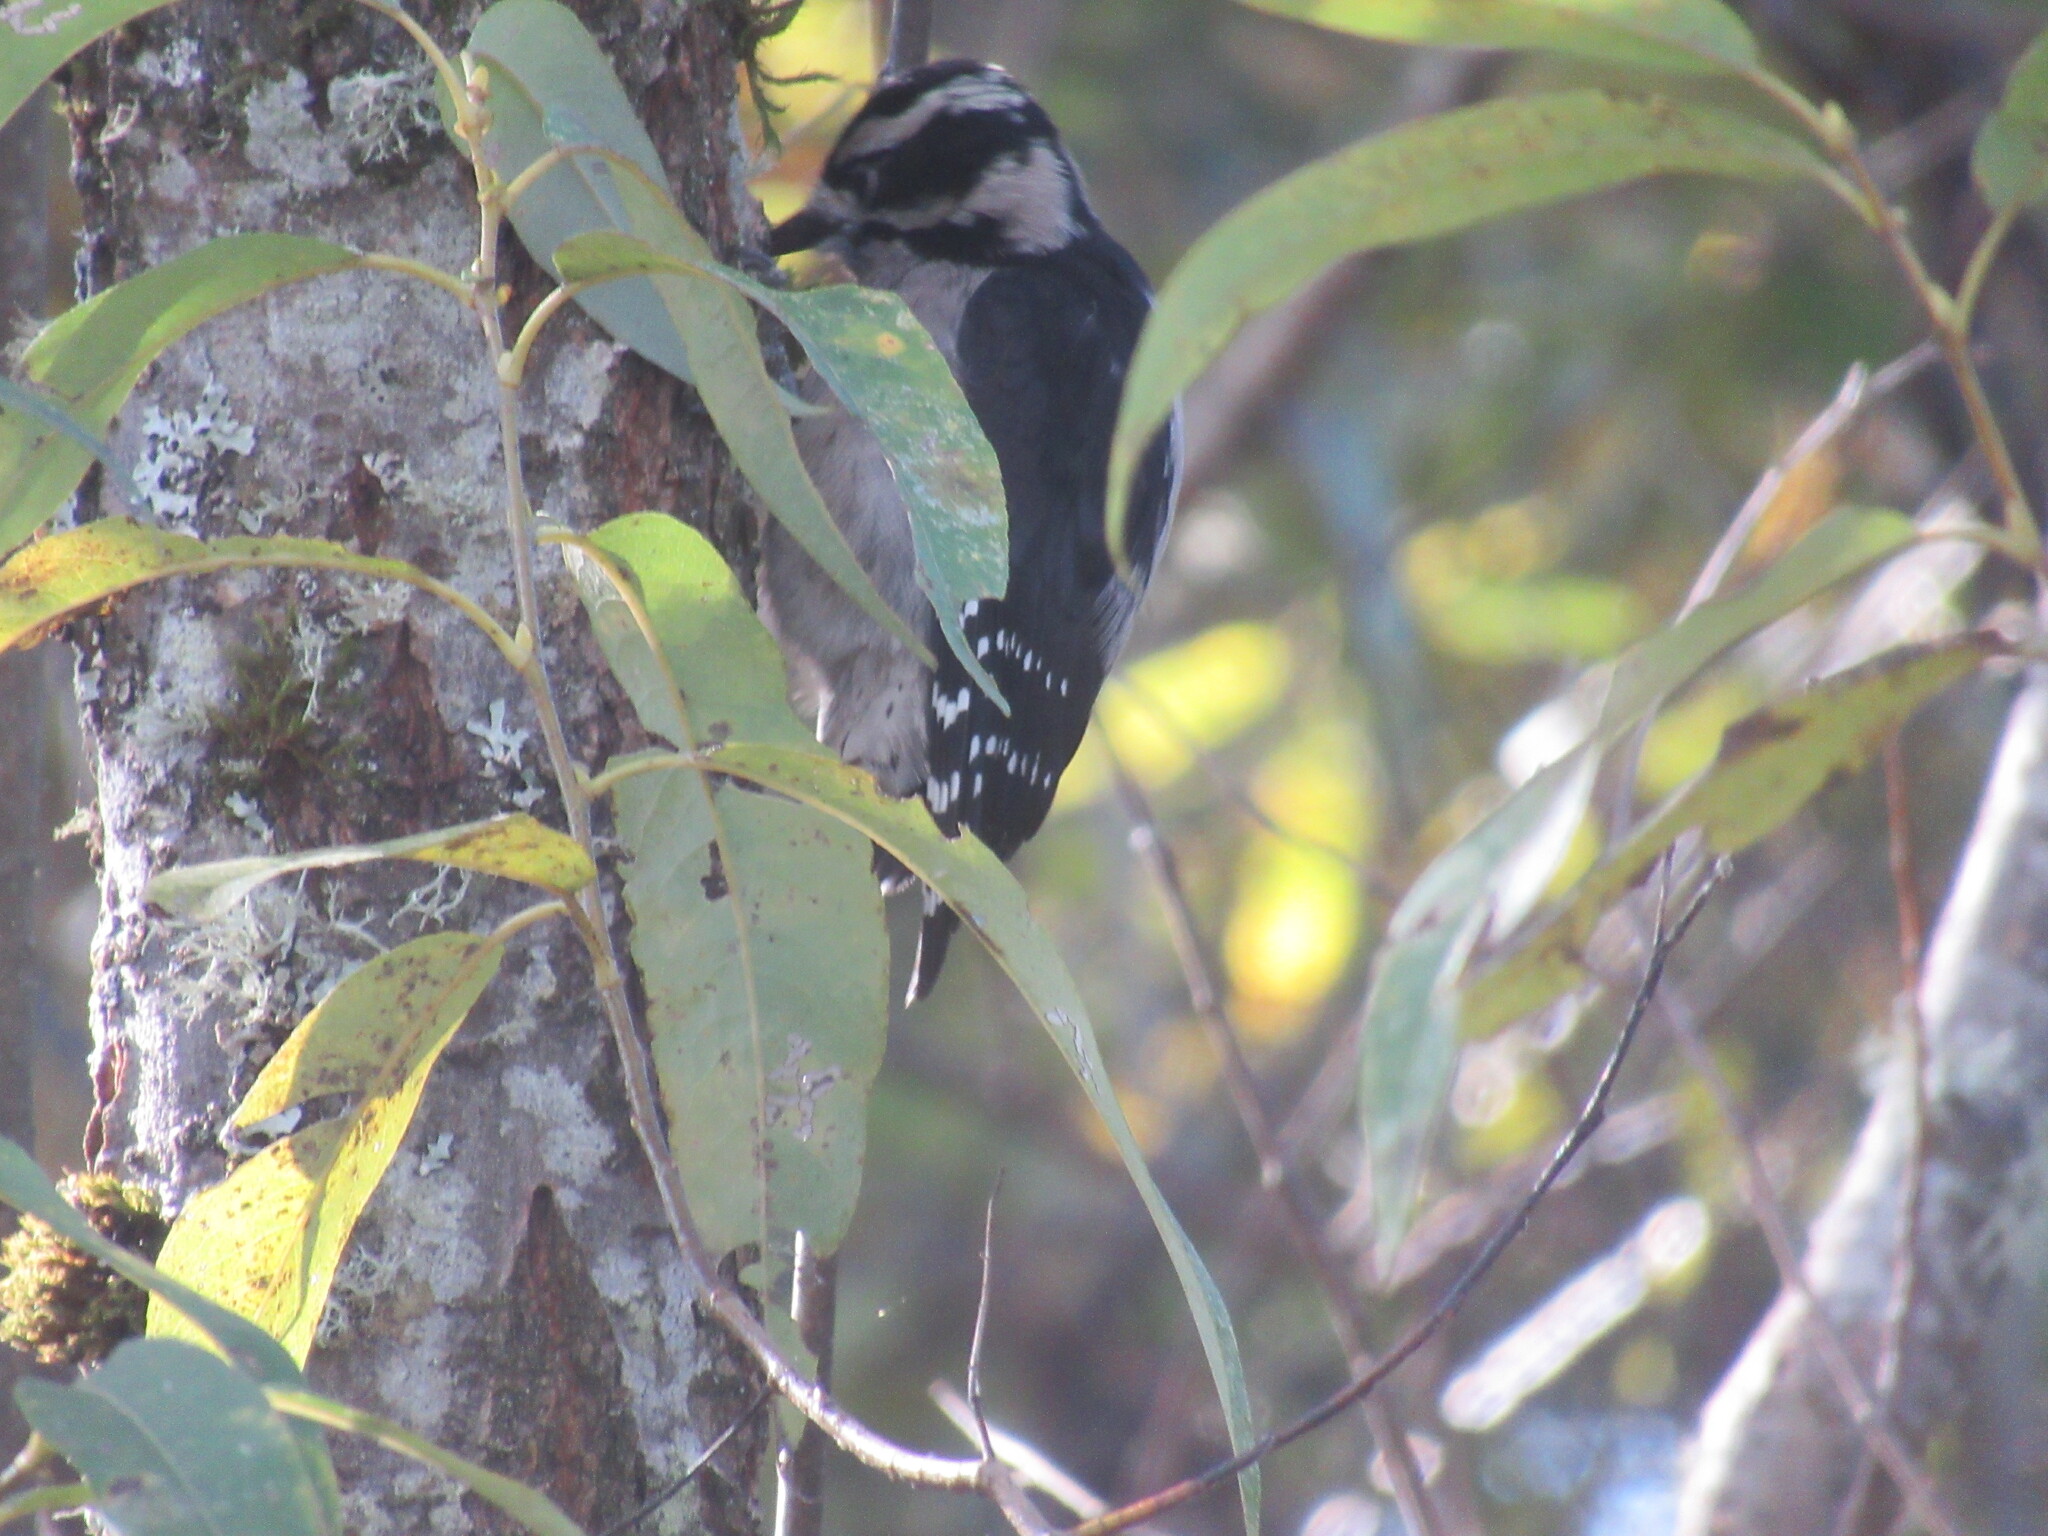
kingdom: Animalia
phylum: Chordata
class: Aves
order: Piciformes
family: Picidae
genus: Dryobates
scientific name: Dryobates pubescens
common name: Downy woodpecker
